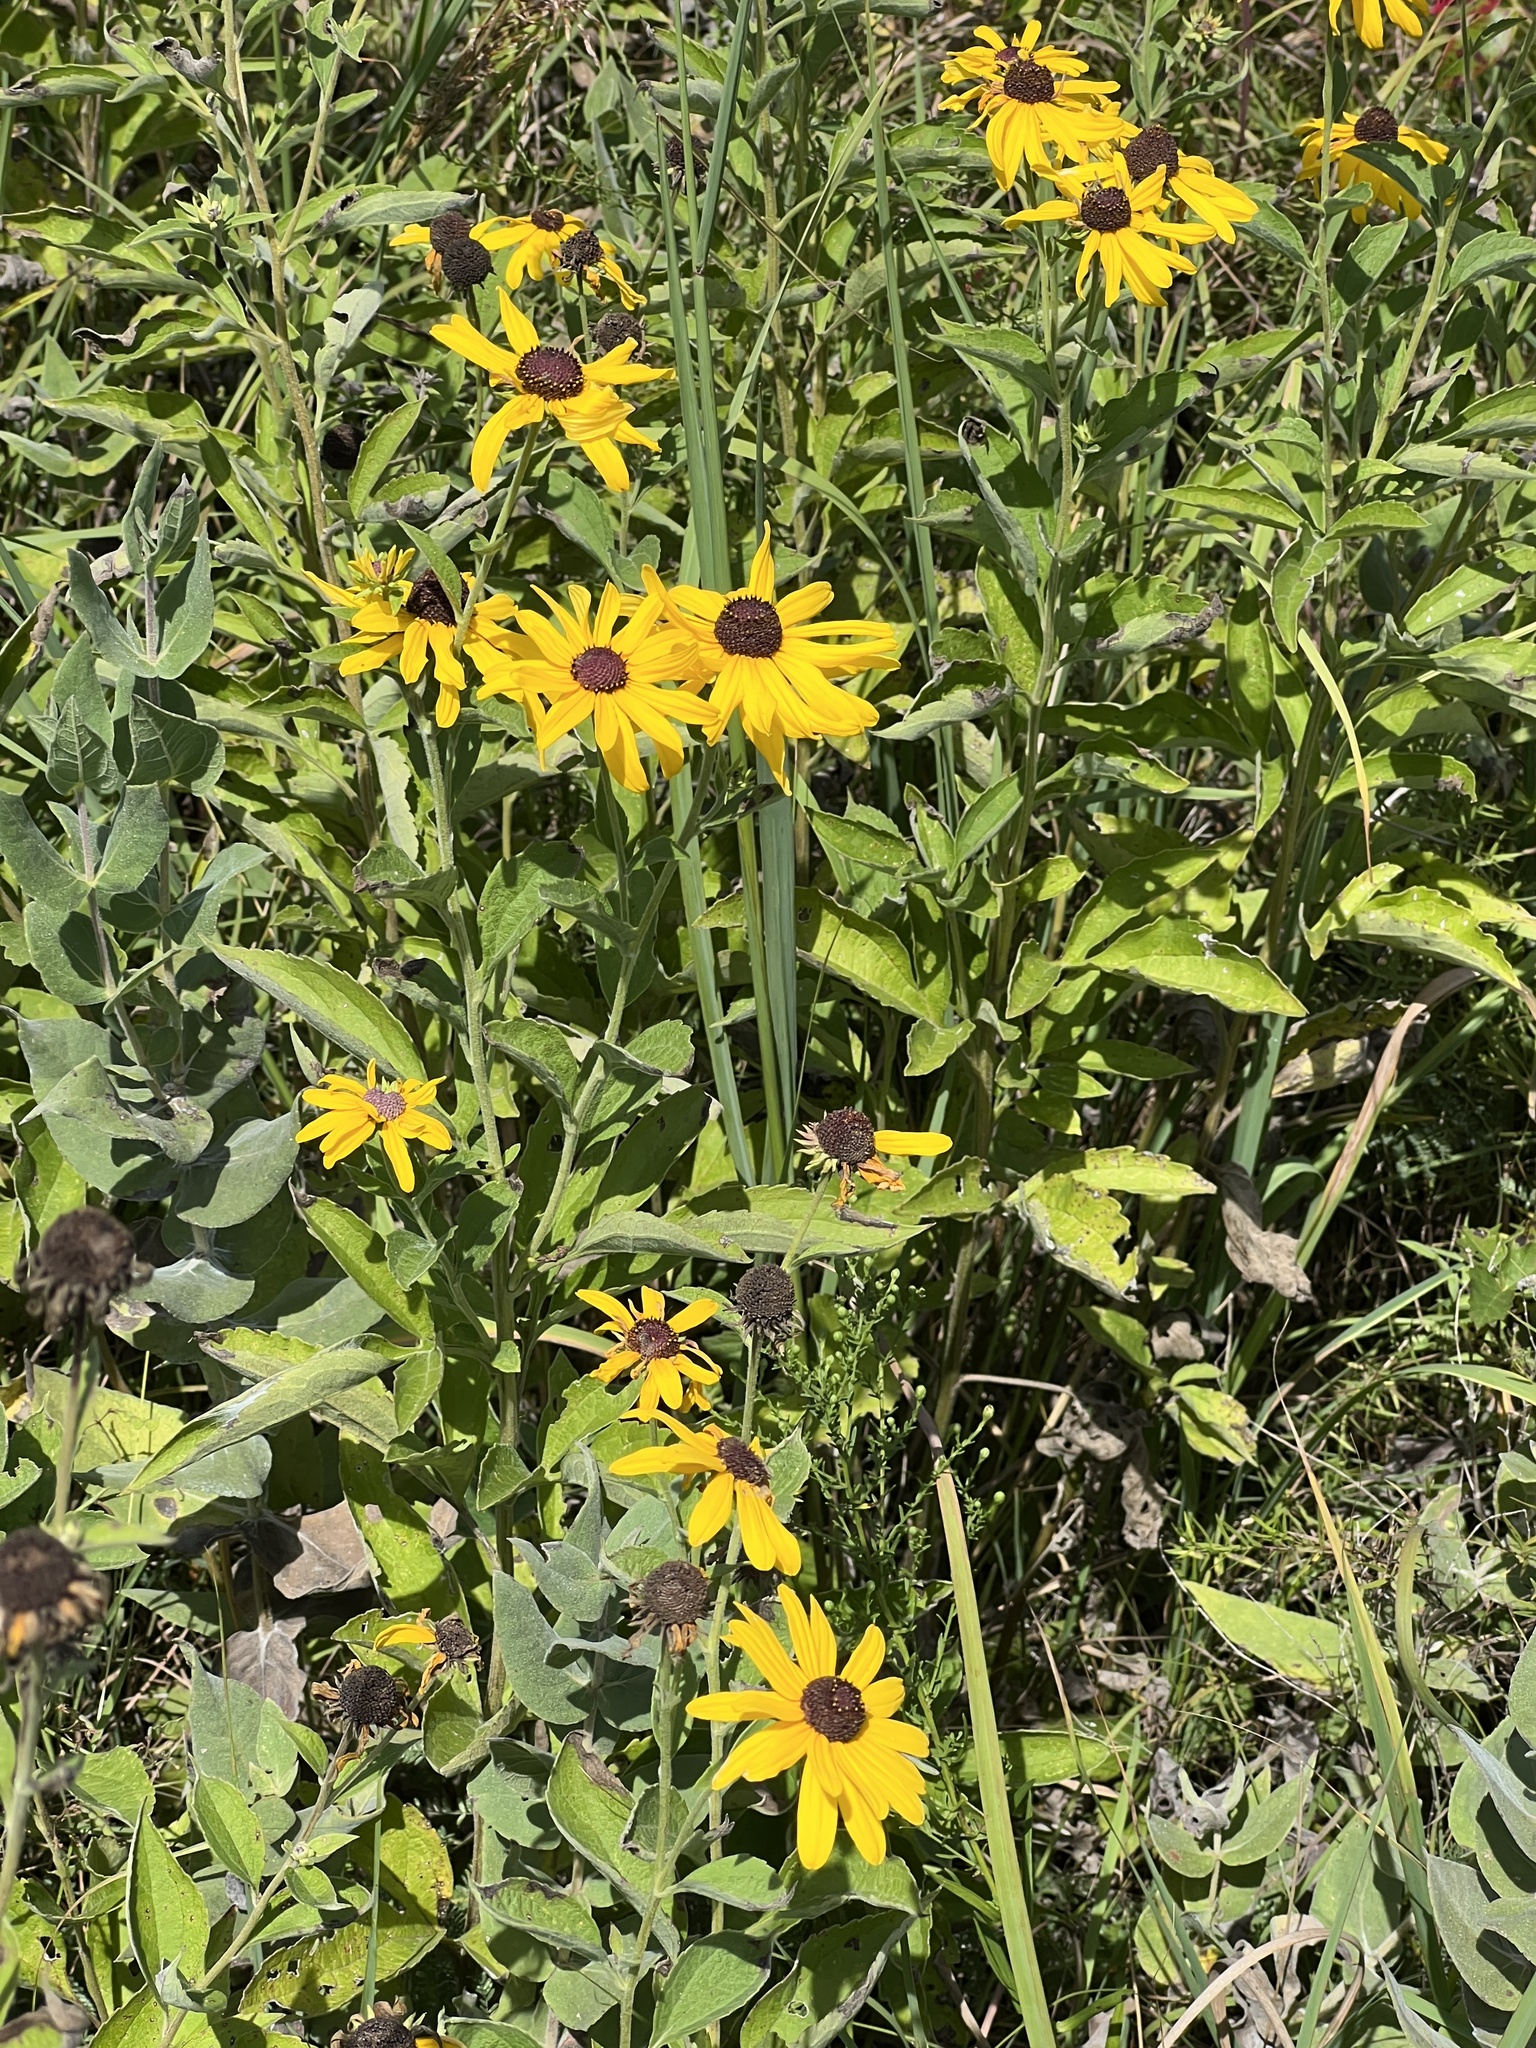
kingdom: Plantae
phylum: Tracheophyta
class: Magnoliopsida
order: Asterales
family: Asteraceae
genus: Rudbeckia
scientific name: Rudbeckia subtomentosa
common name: Sweet coneflower
